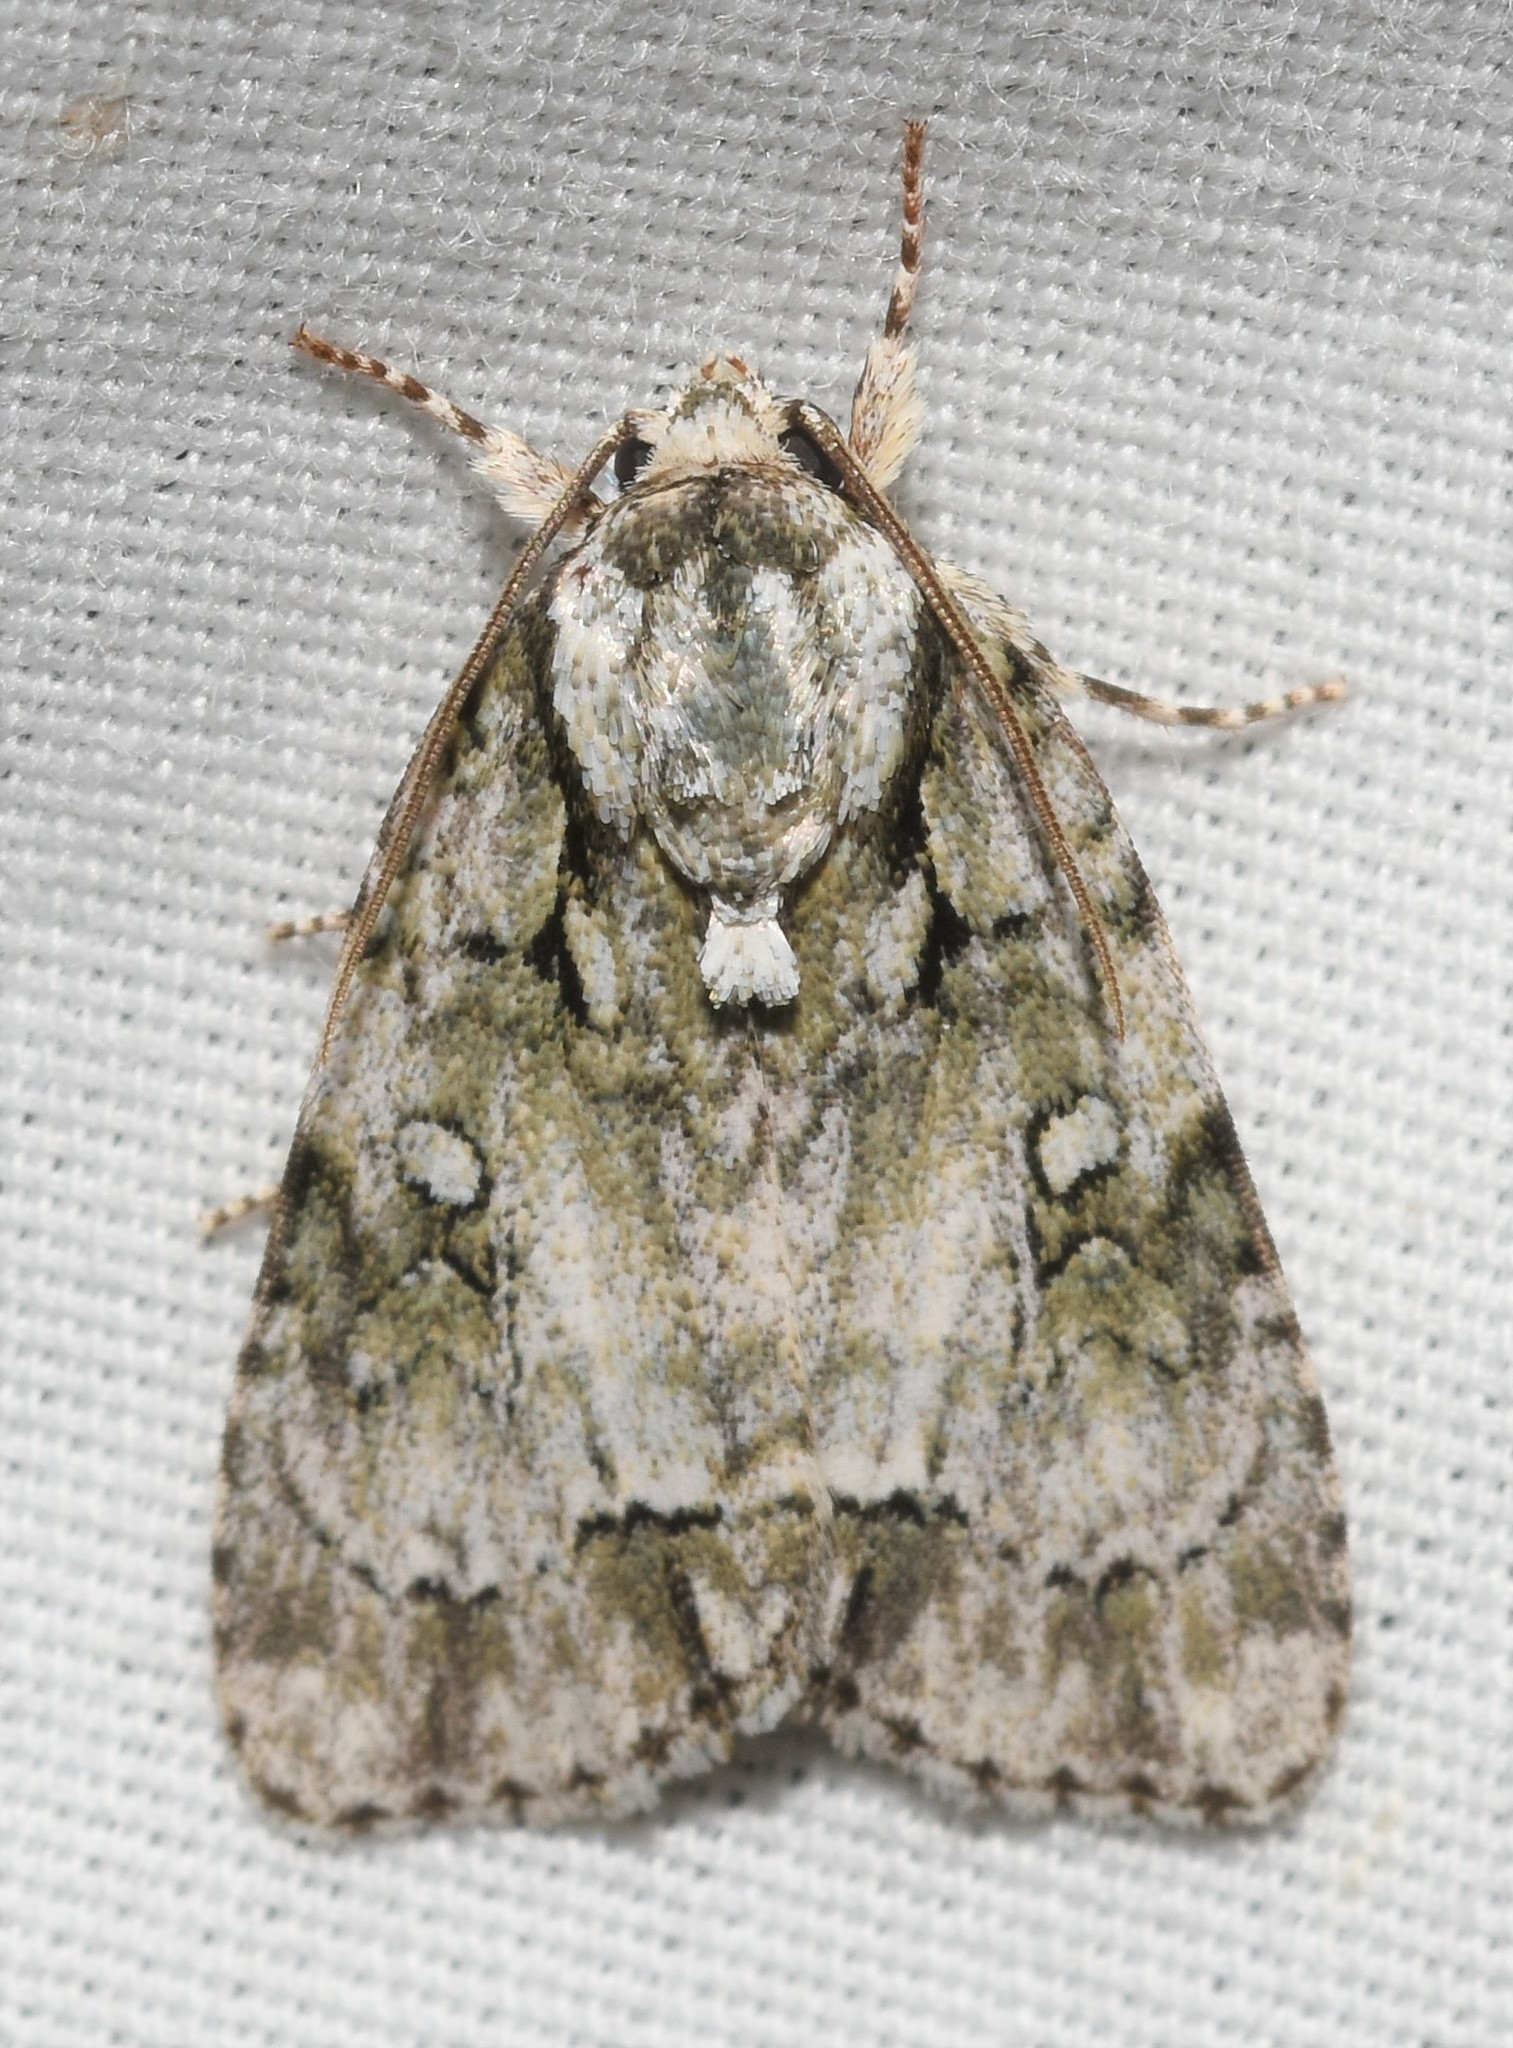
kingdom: Animalia
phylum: Arthropoda
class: Insecta
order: Lepidoptera
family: Noctuidae
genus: Acronicta
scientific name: Acronicta vinnula
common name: Delightful dagger
